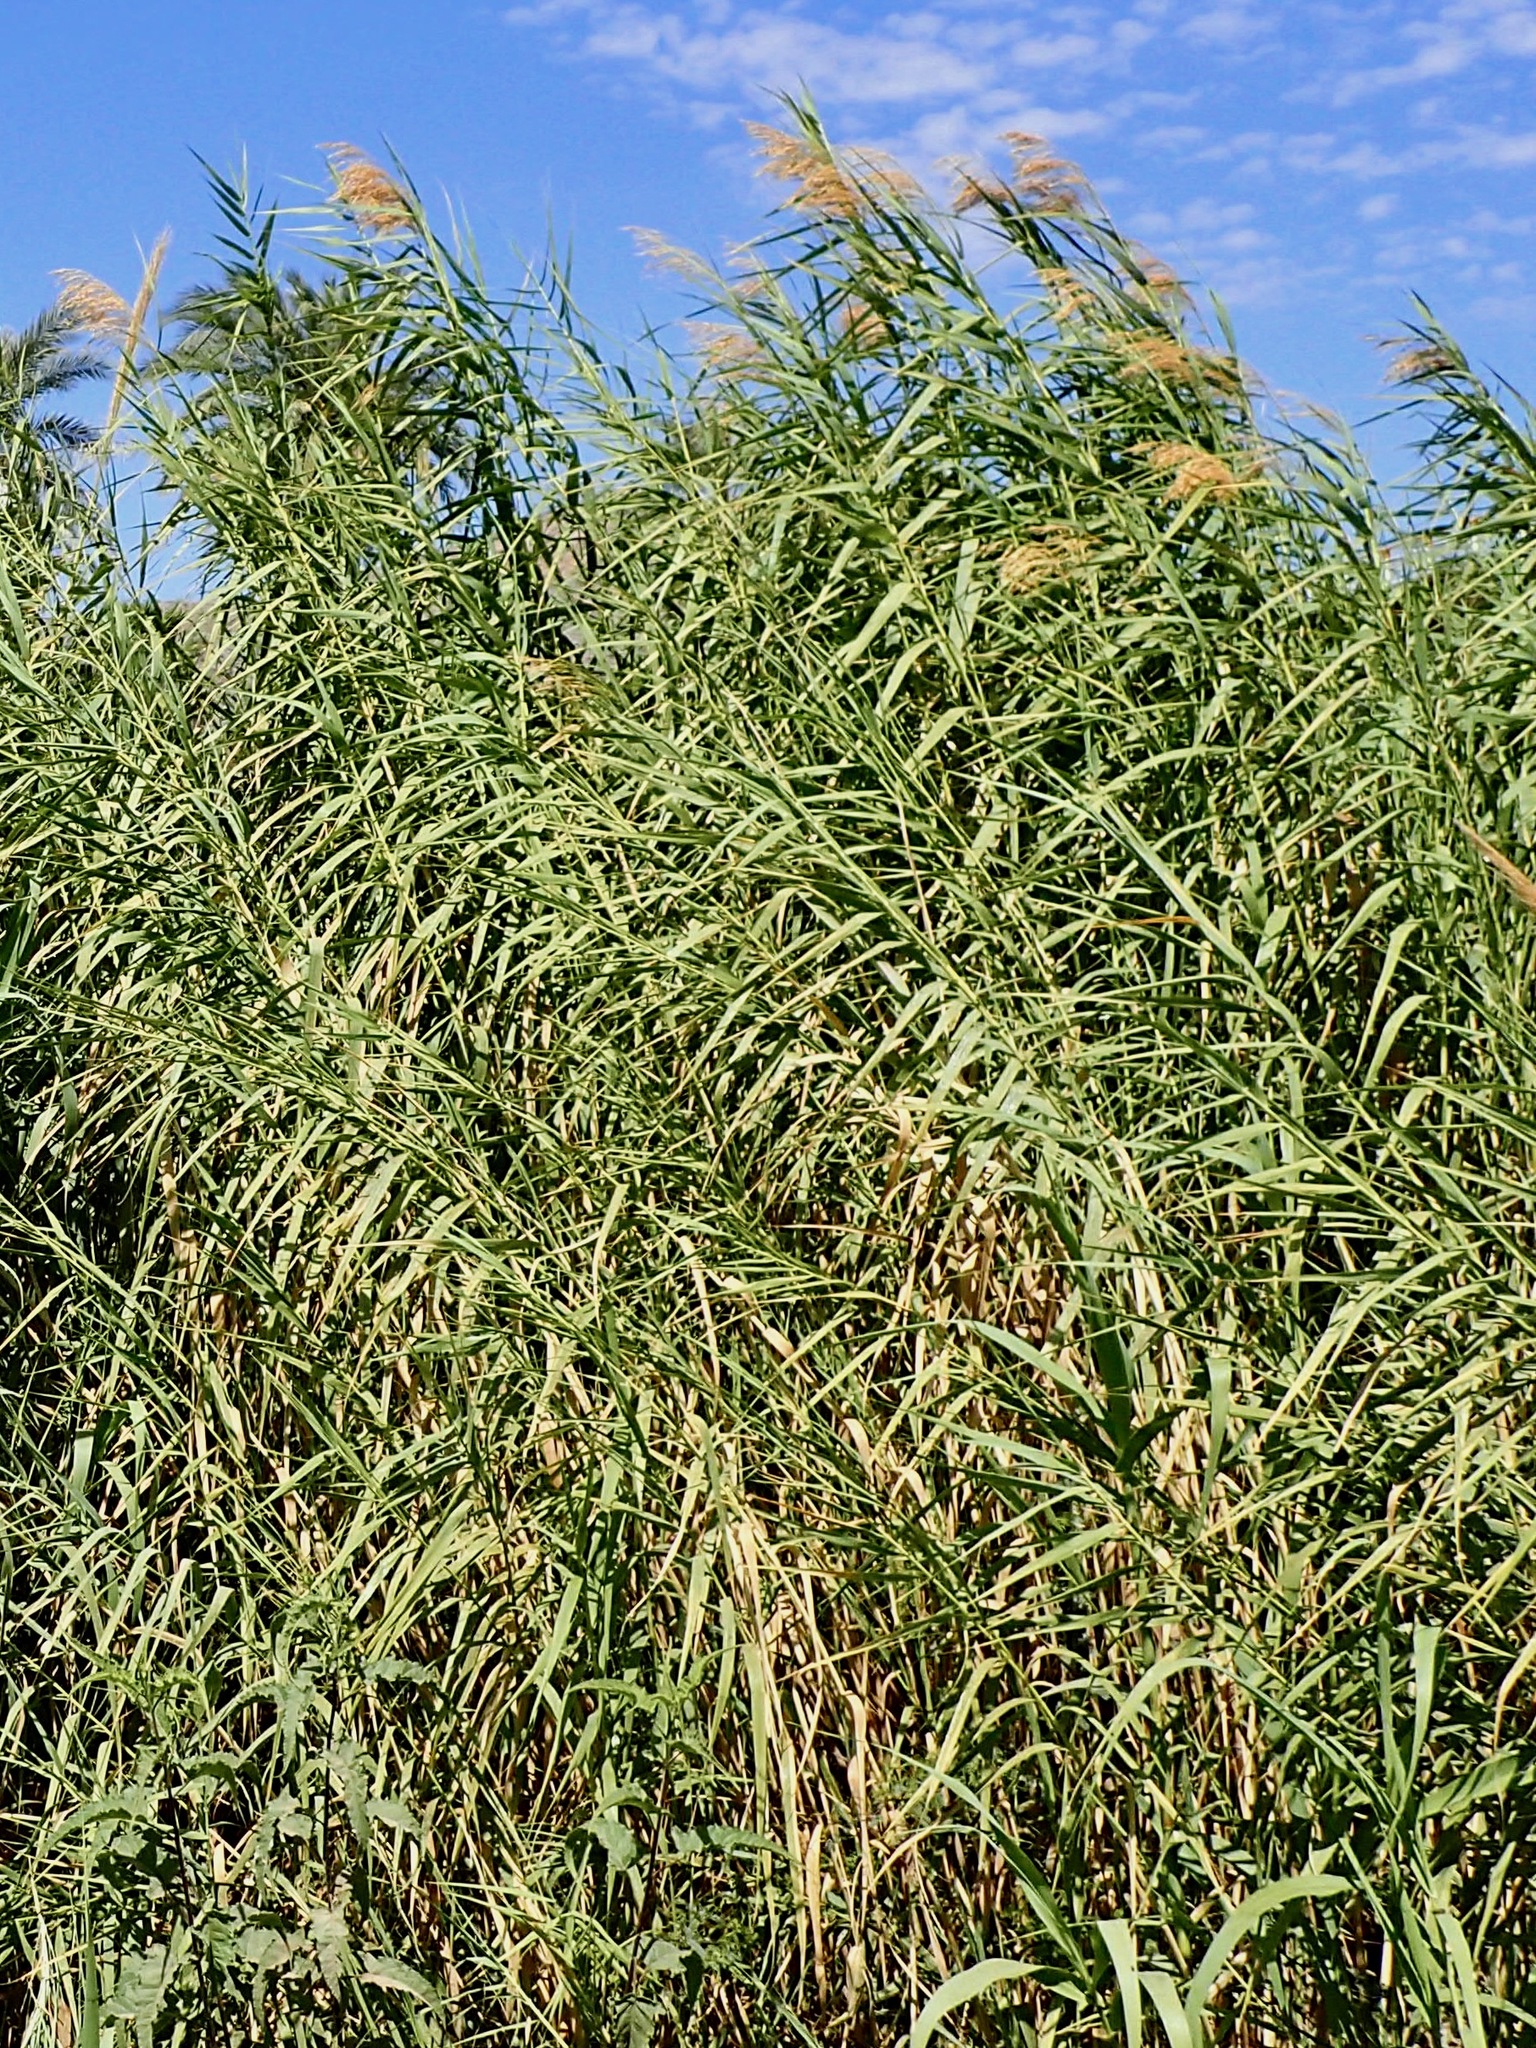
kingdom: Plantae
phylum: Tracheophyta
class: Liliopsida
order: Poales
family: Poaceae
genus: Phragmites
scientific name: Phragmites australis
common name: Common reed
